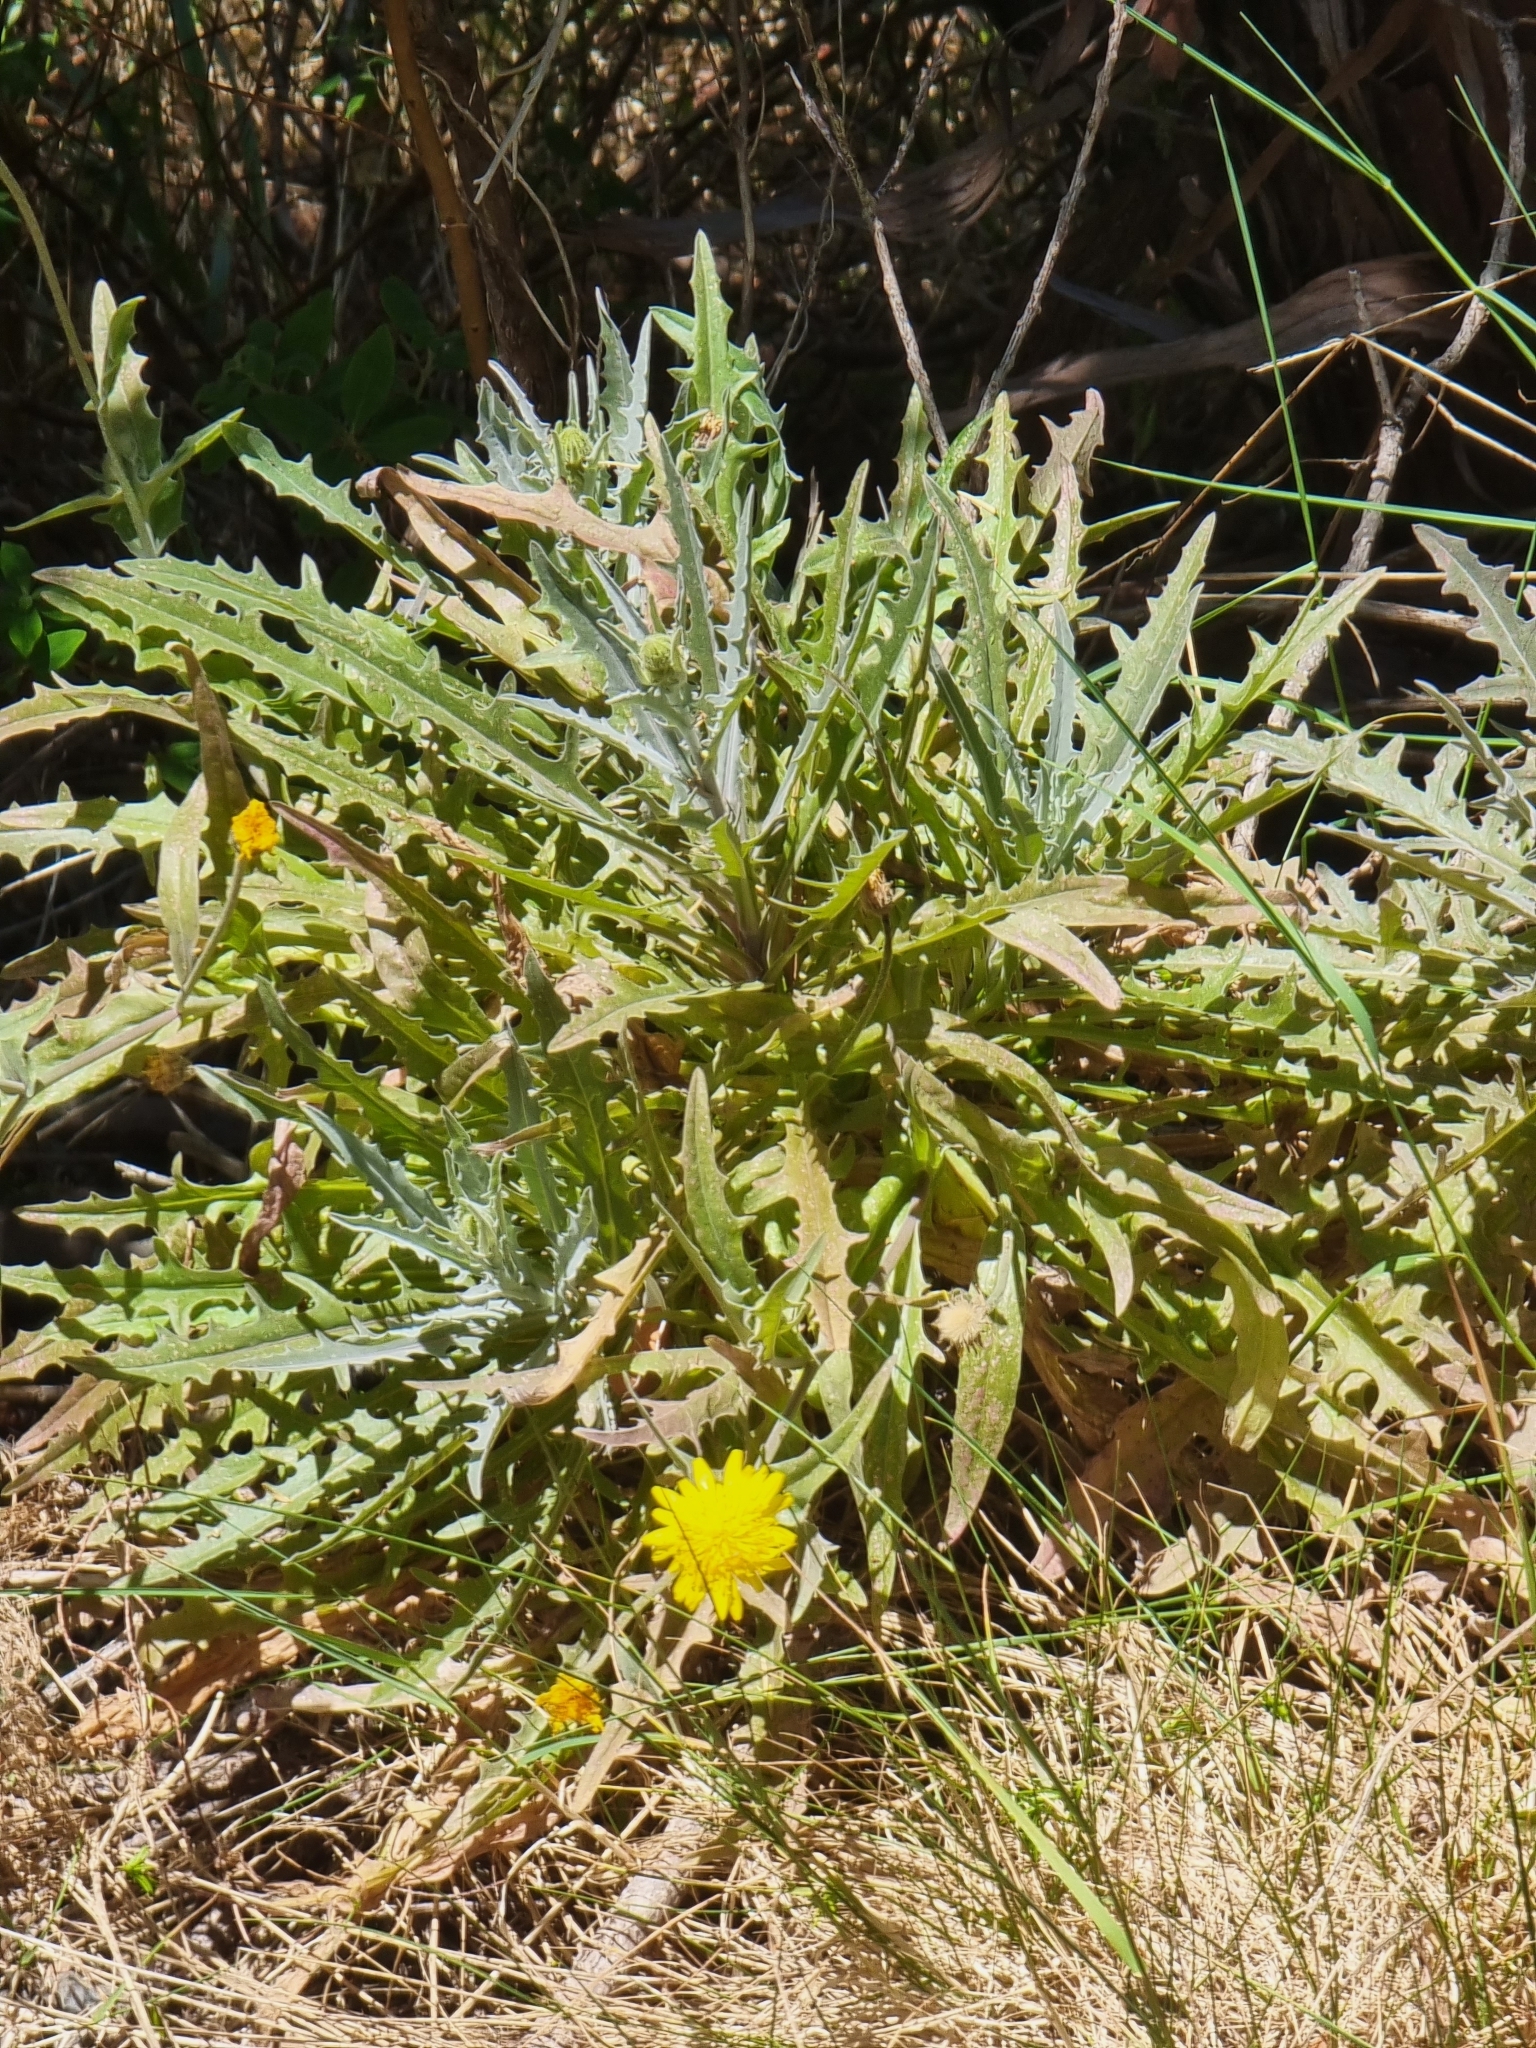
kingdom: Plantae
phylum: Tracheophyta
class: Magnoliopsida
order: Asterales
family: Asteraceae
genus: Andryala
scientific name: Andryala glandulosa
